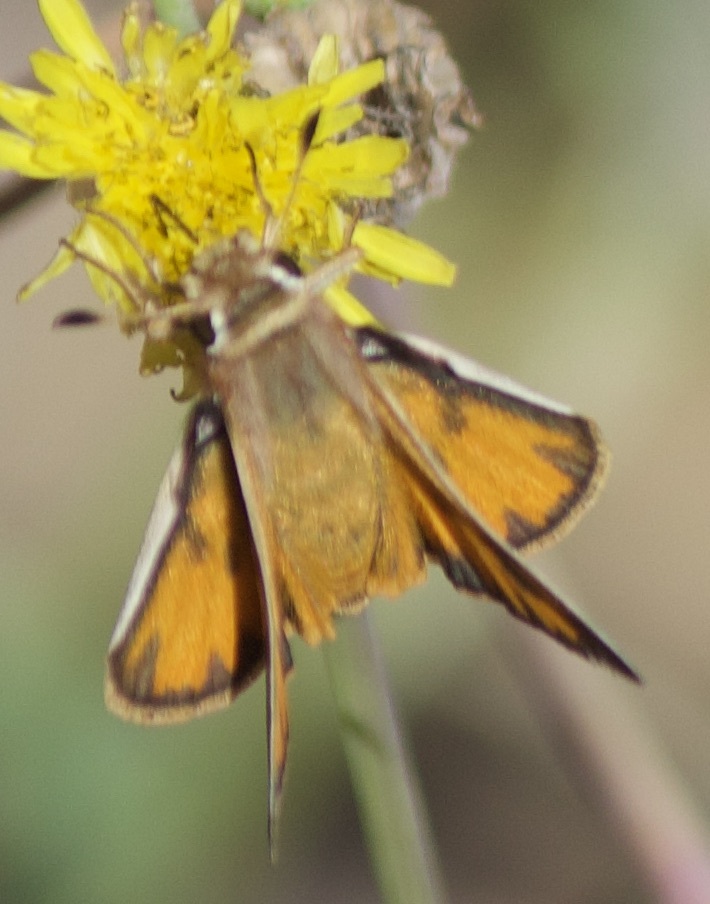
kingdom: Animalia
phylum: Arthropoda
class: Insecta
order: Lepidoptera
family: Hesperiidae
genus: Hylephila
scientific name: Hylephila fasciolata
